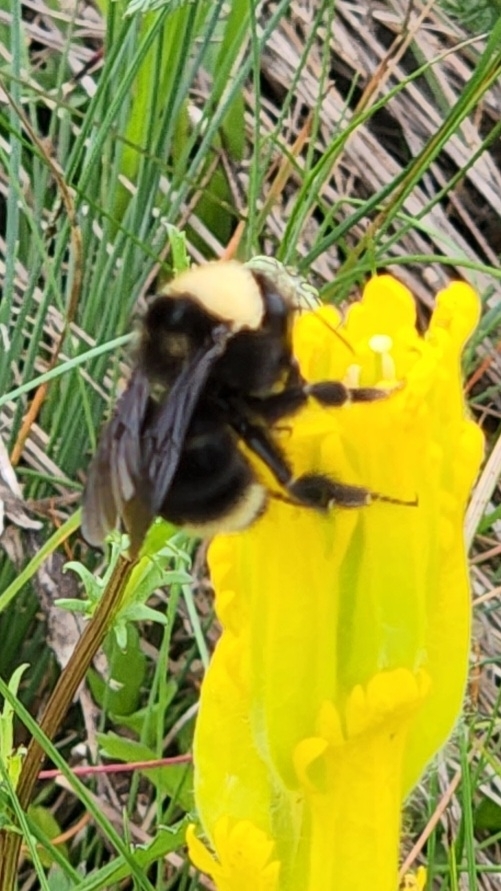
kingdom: Animalia
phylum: Arthropoda
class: Insecta
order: Hymenoptera
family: Apidae
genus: Bombus
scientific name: Bombus californicus
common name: California bumble bee
